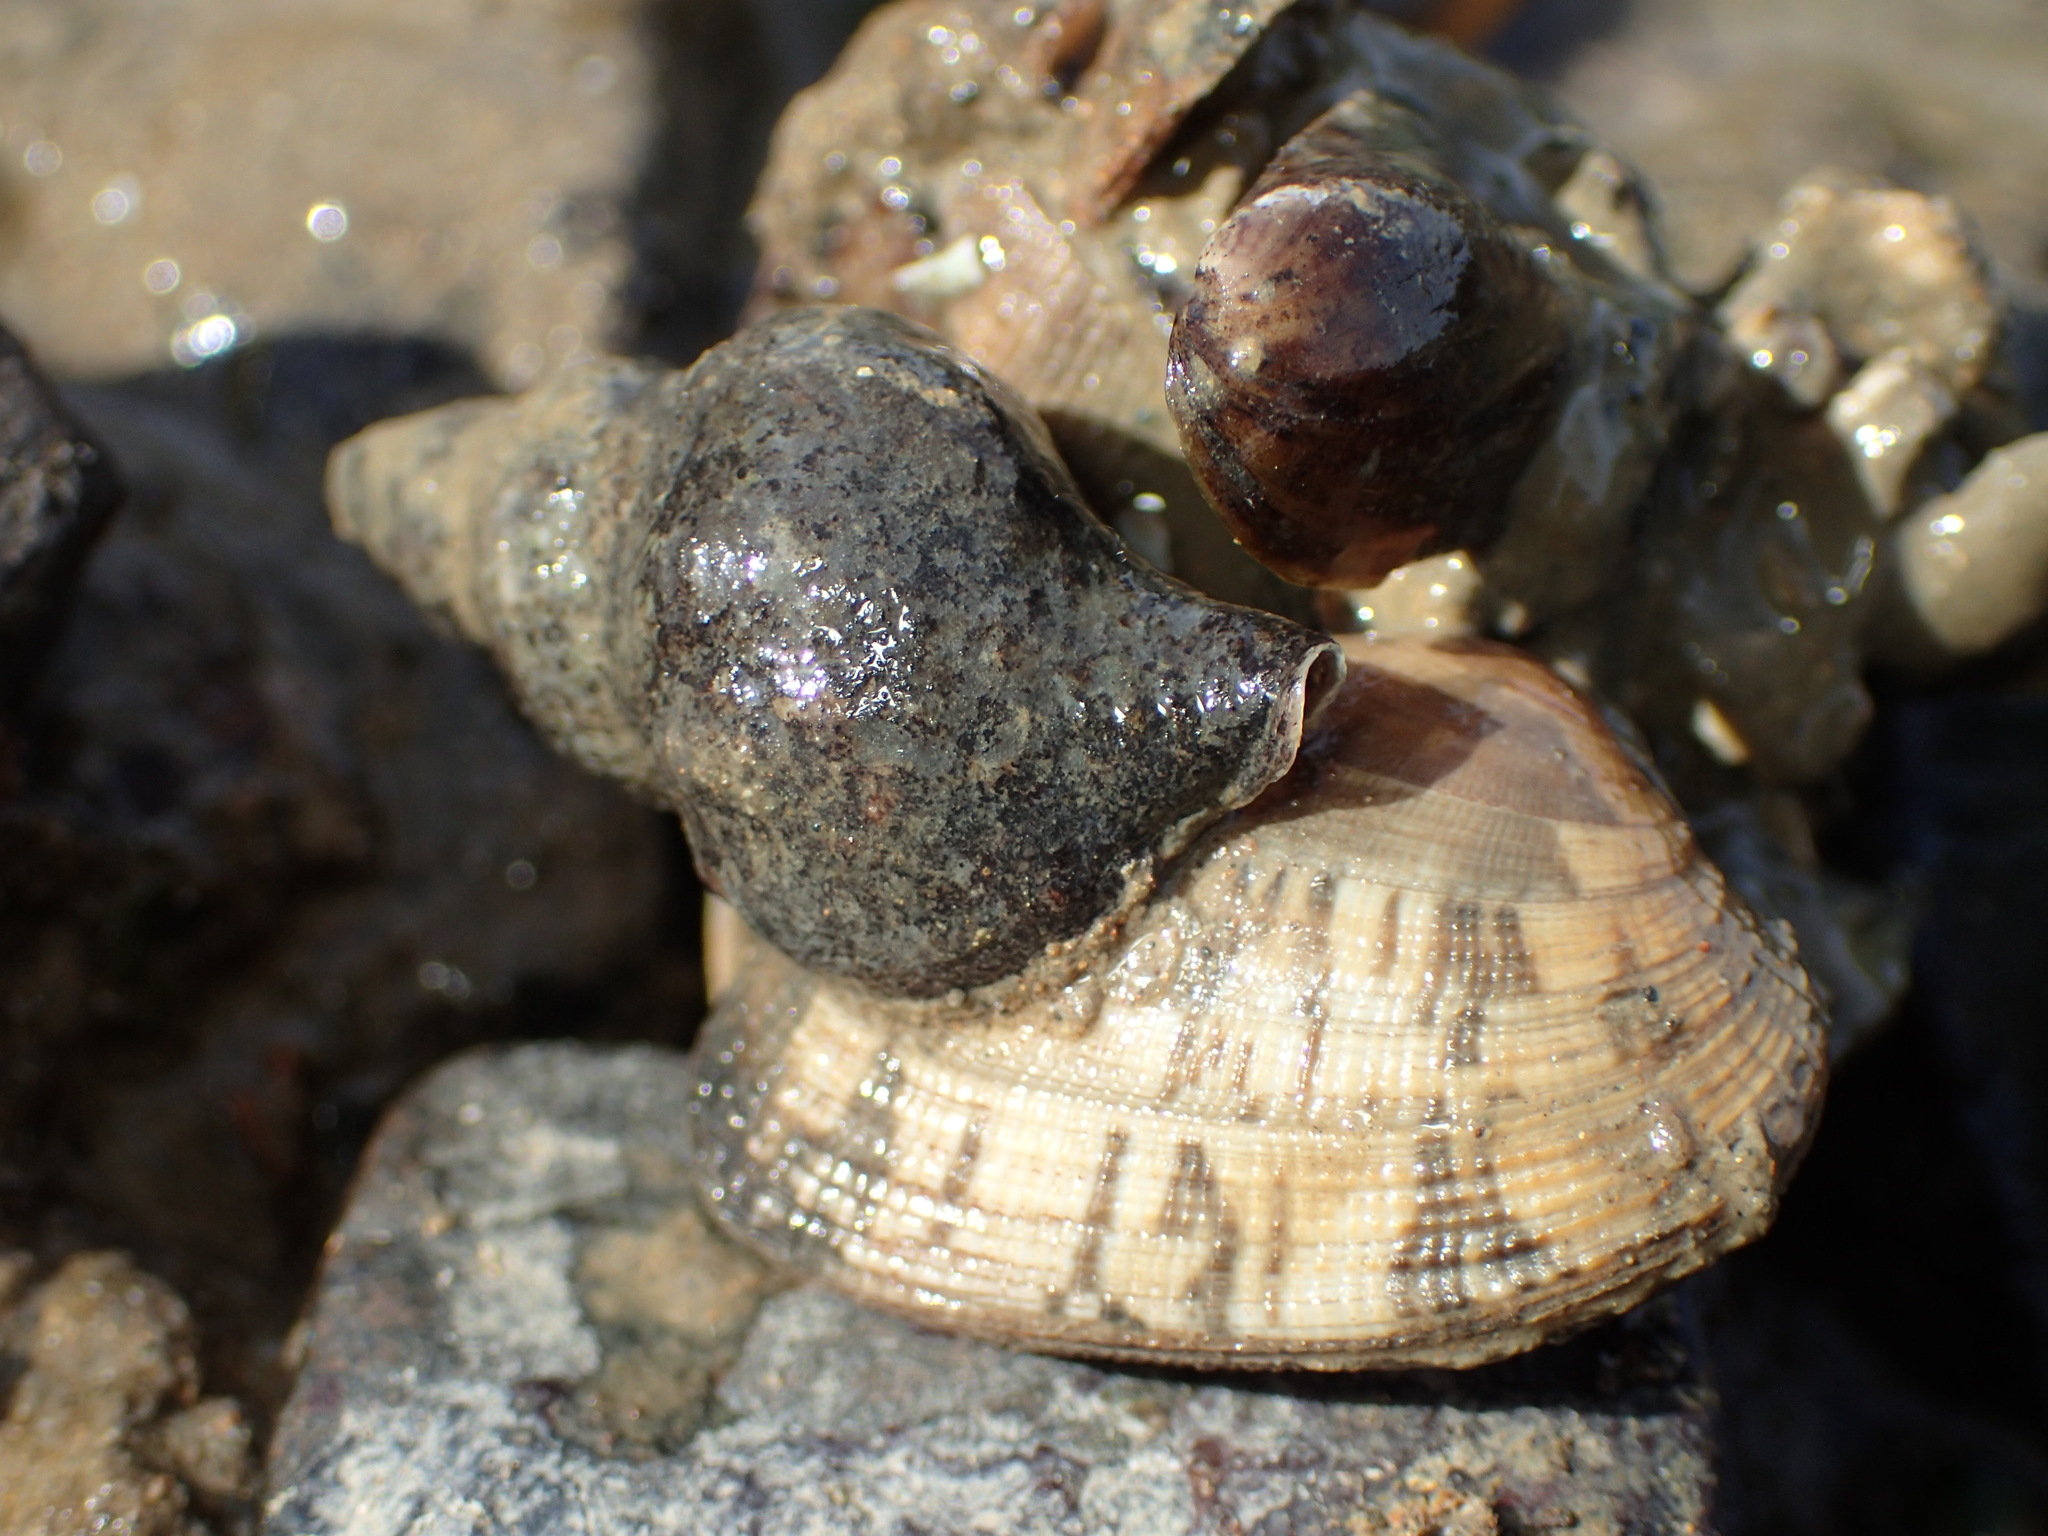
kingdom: Animalia
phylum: Mollusca
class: Gastropoda
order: Neogastropoda
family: Muricidae
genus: Urosalpinx
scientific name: Urosalpinx cinerea
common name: American sting winkle
